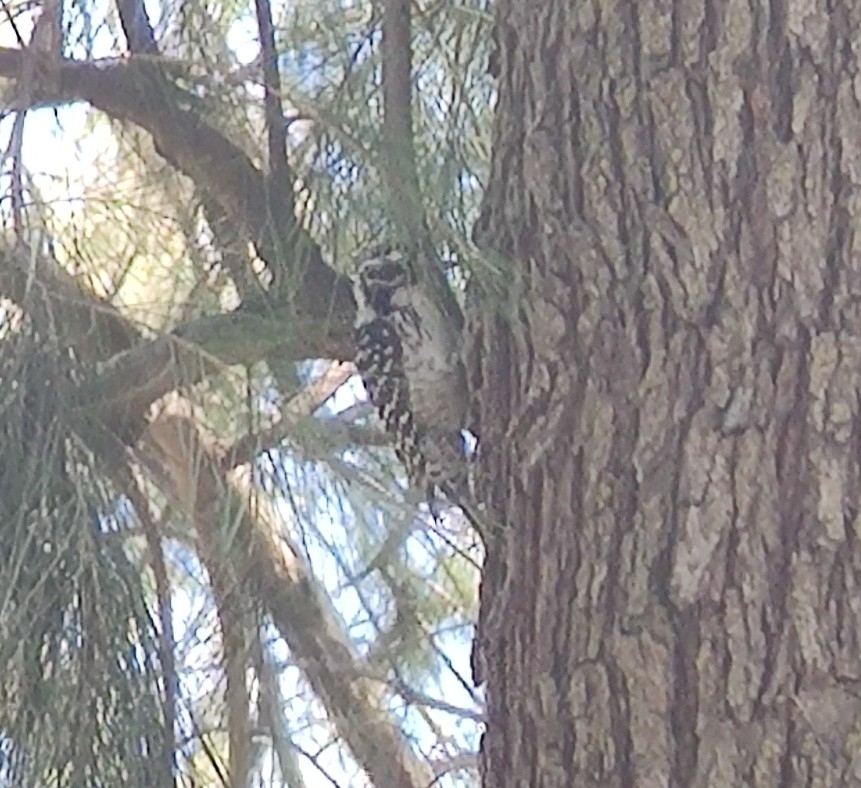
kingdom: Animalia
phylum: Chordata
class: Aves
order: Piciformes
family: Picidae
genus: Dryobates
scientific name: Dryobates nuttallii
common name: Nuttall's woodpecker
